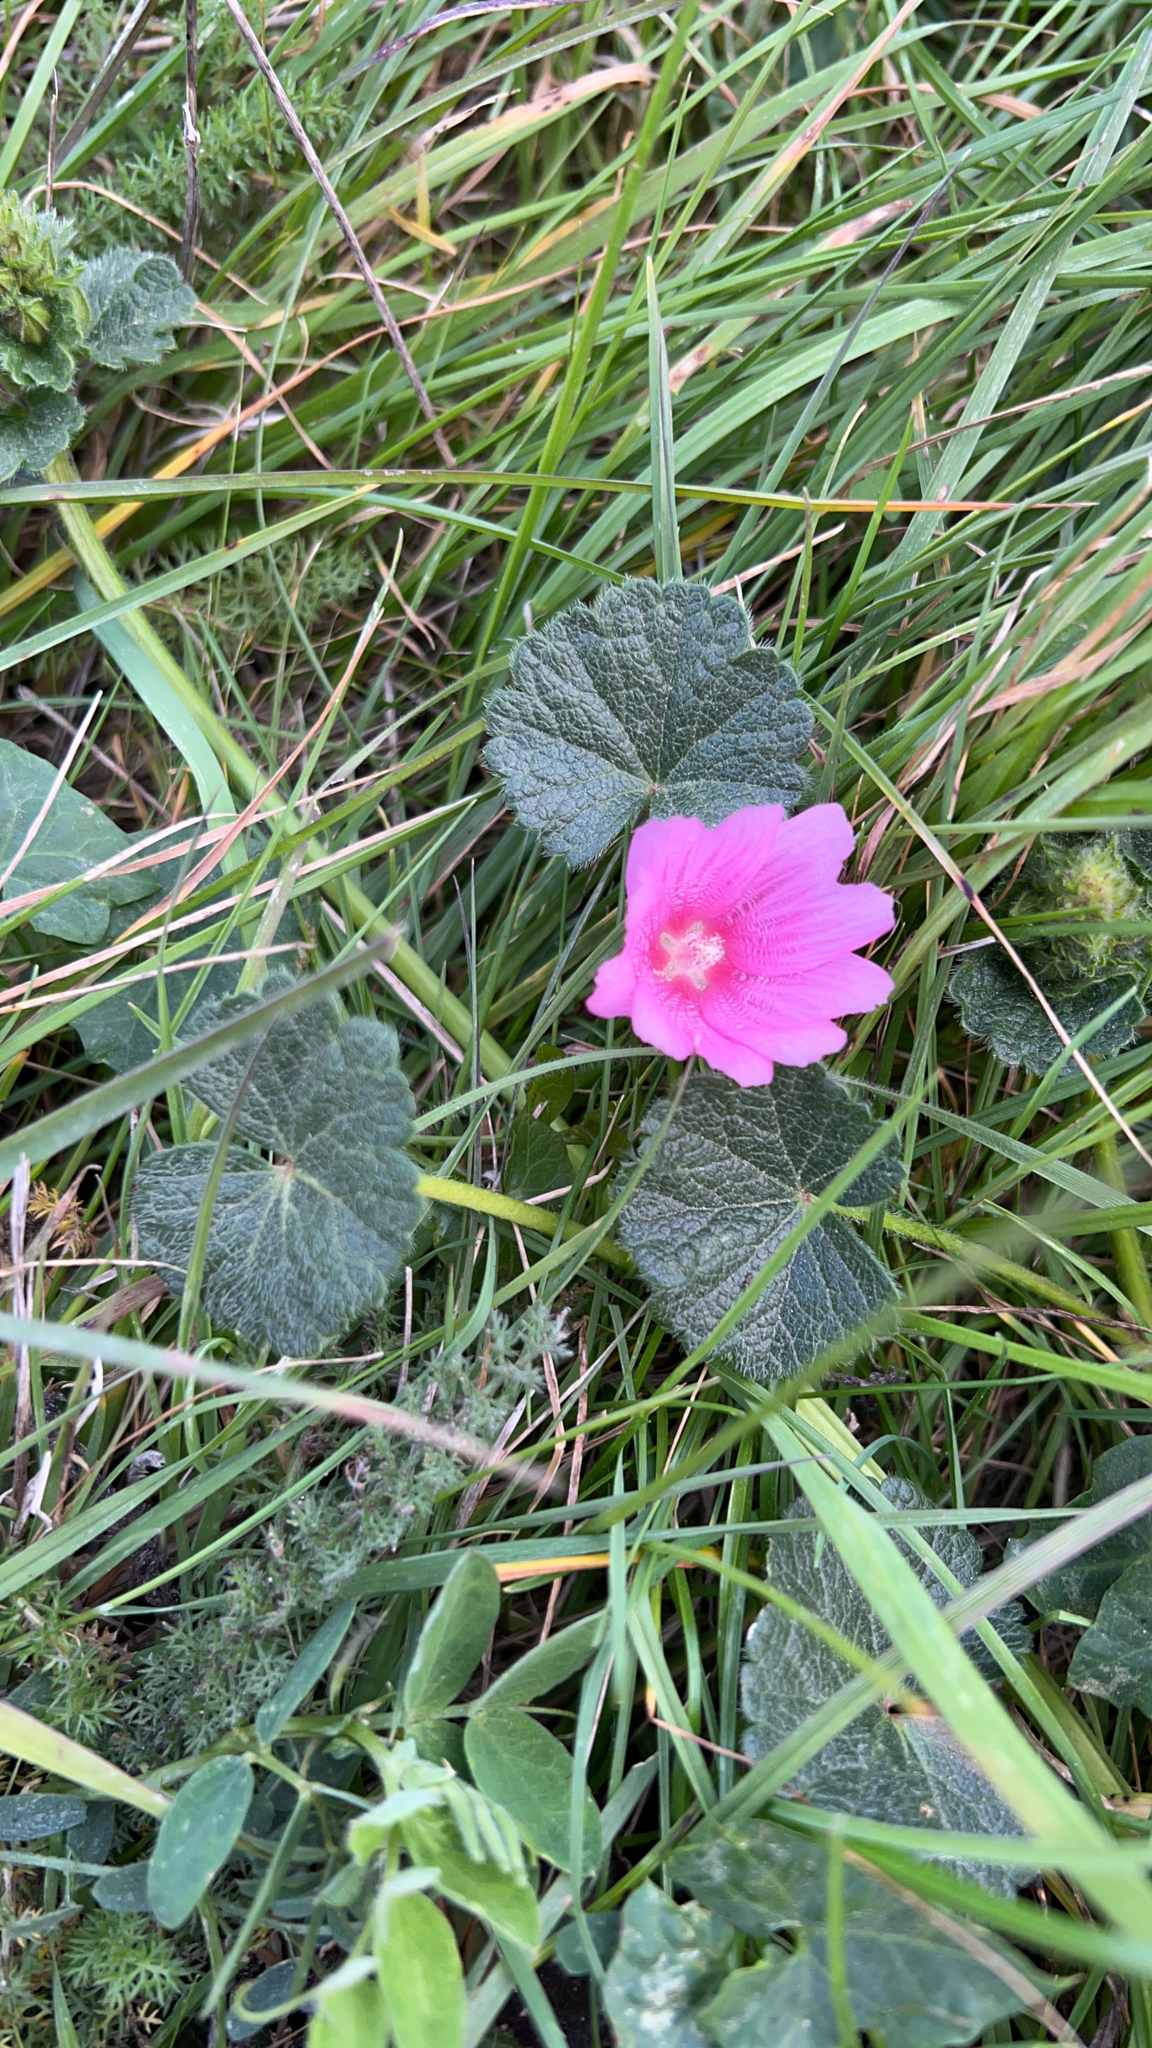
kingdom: Plantae
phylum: Tracheophyta
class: Magnoliopsida
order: Malvales
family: Malvaceae
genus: Sidalcea
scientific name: Sidalcea malviflora
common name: Greek mallow
